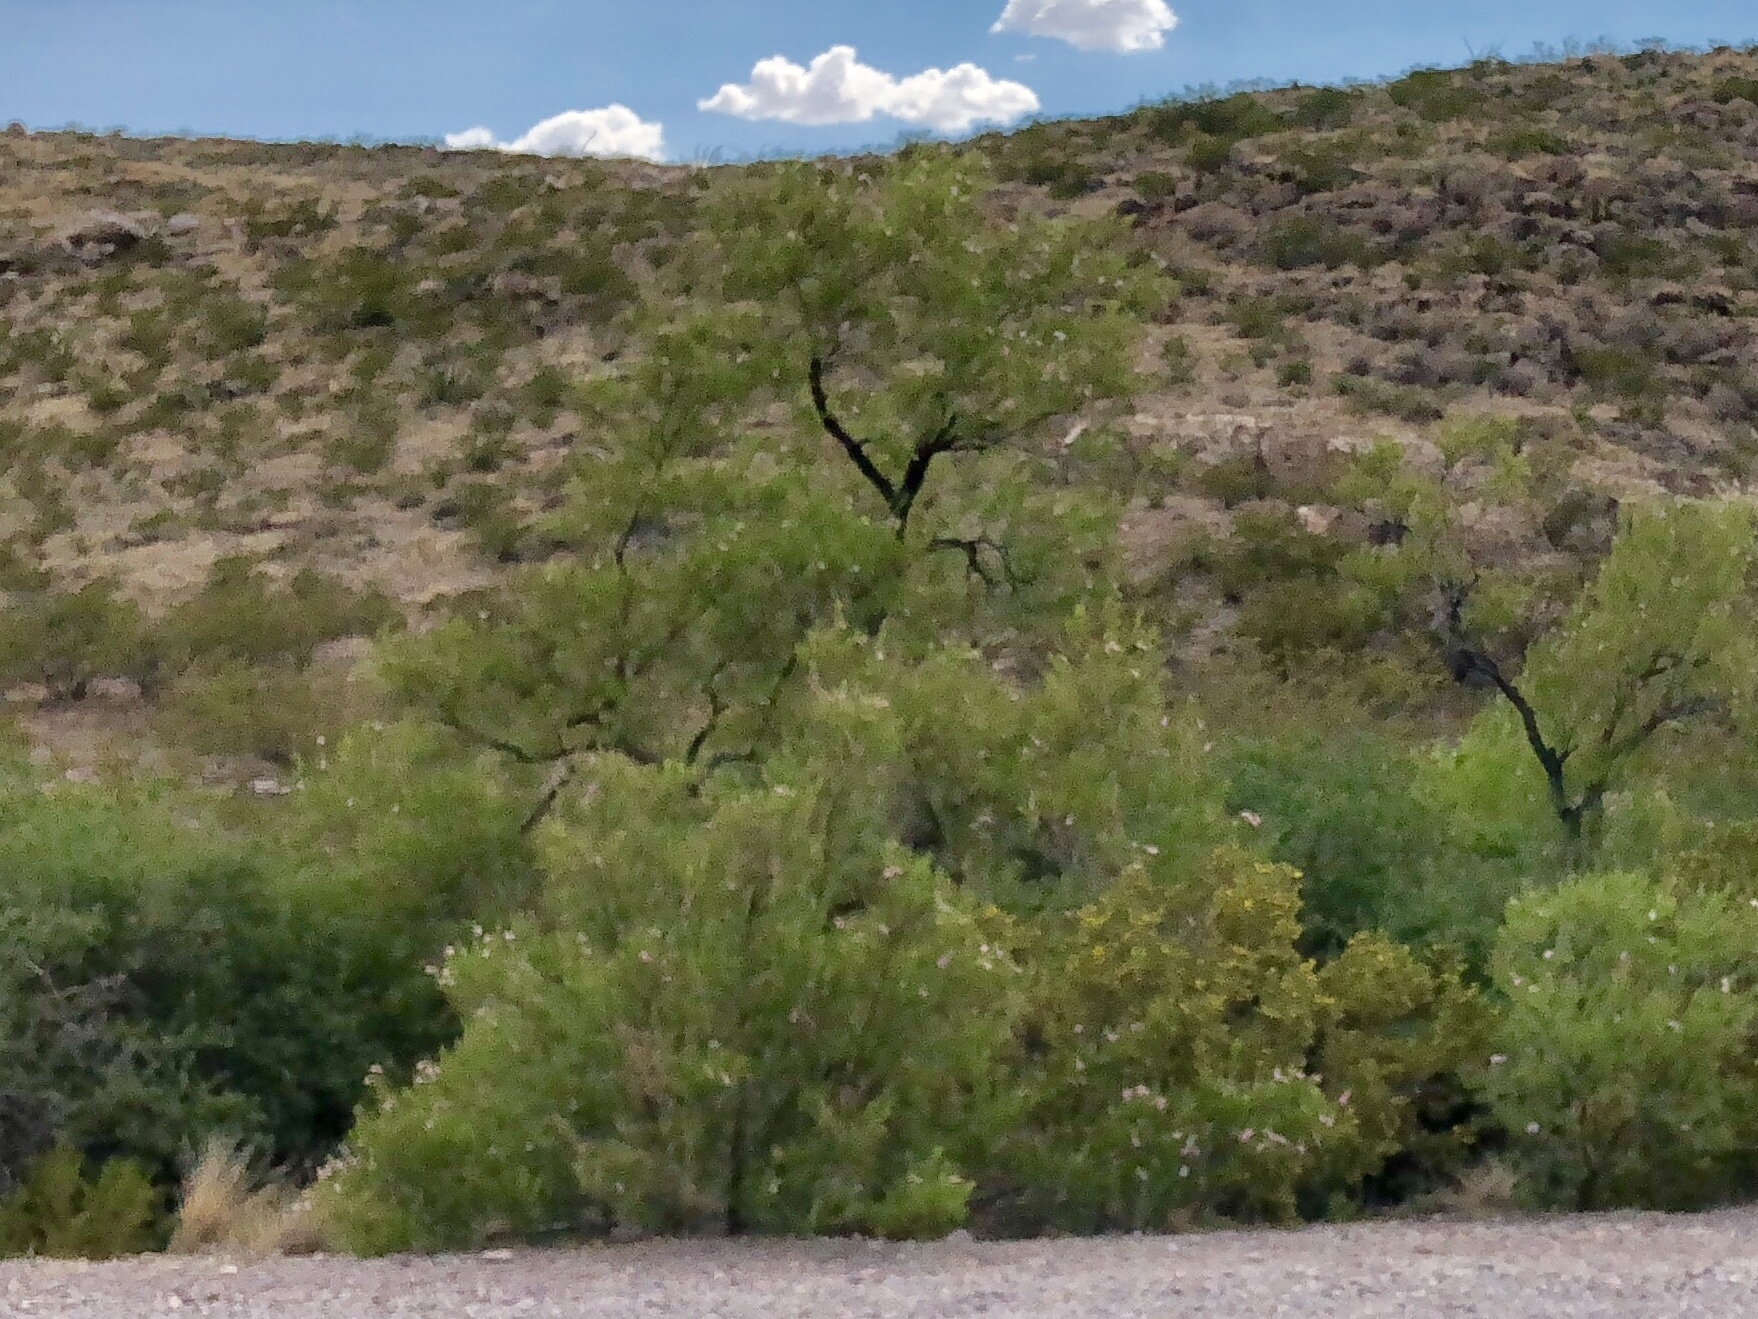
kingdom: Plantae
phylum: Tracheophyta
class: Magnoliopsida
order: Lamiales
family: Bignoniaceae
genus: Chilopsis
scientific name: Chilopsis linearis
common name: Desert-willow
